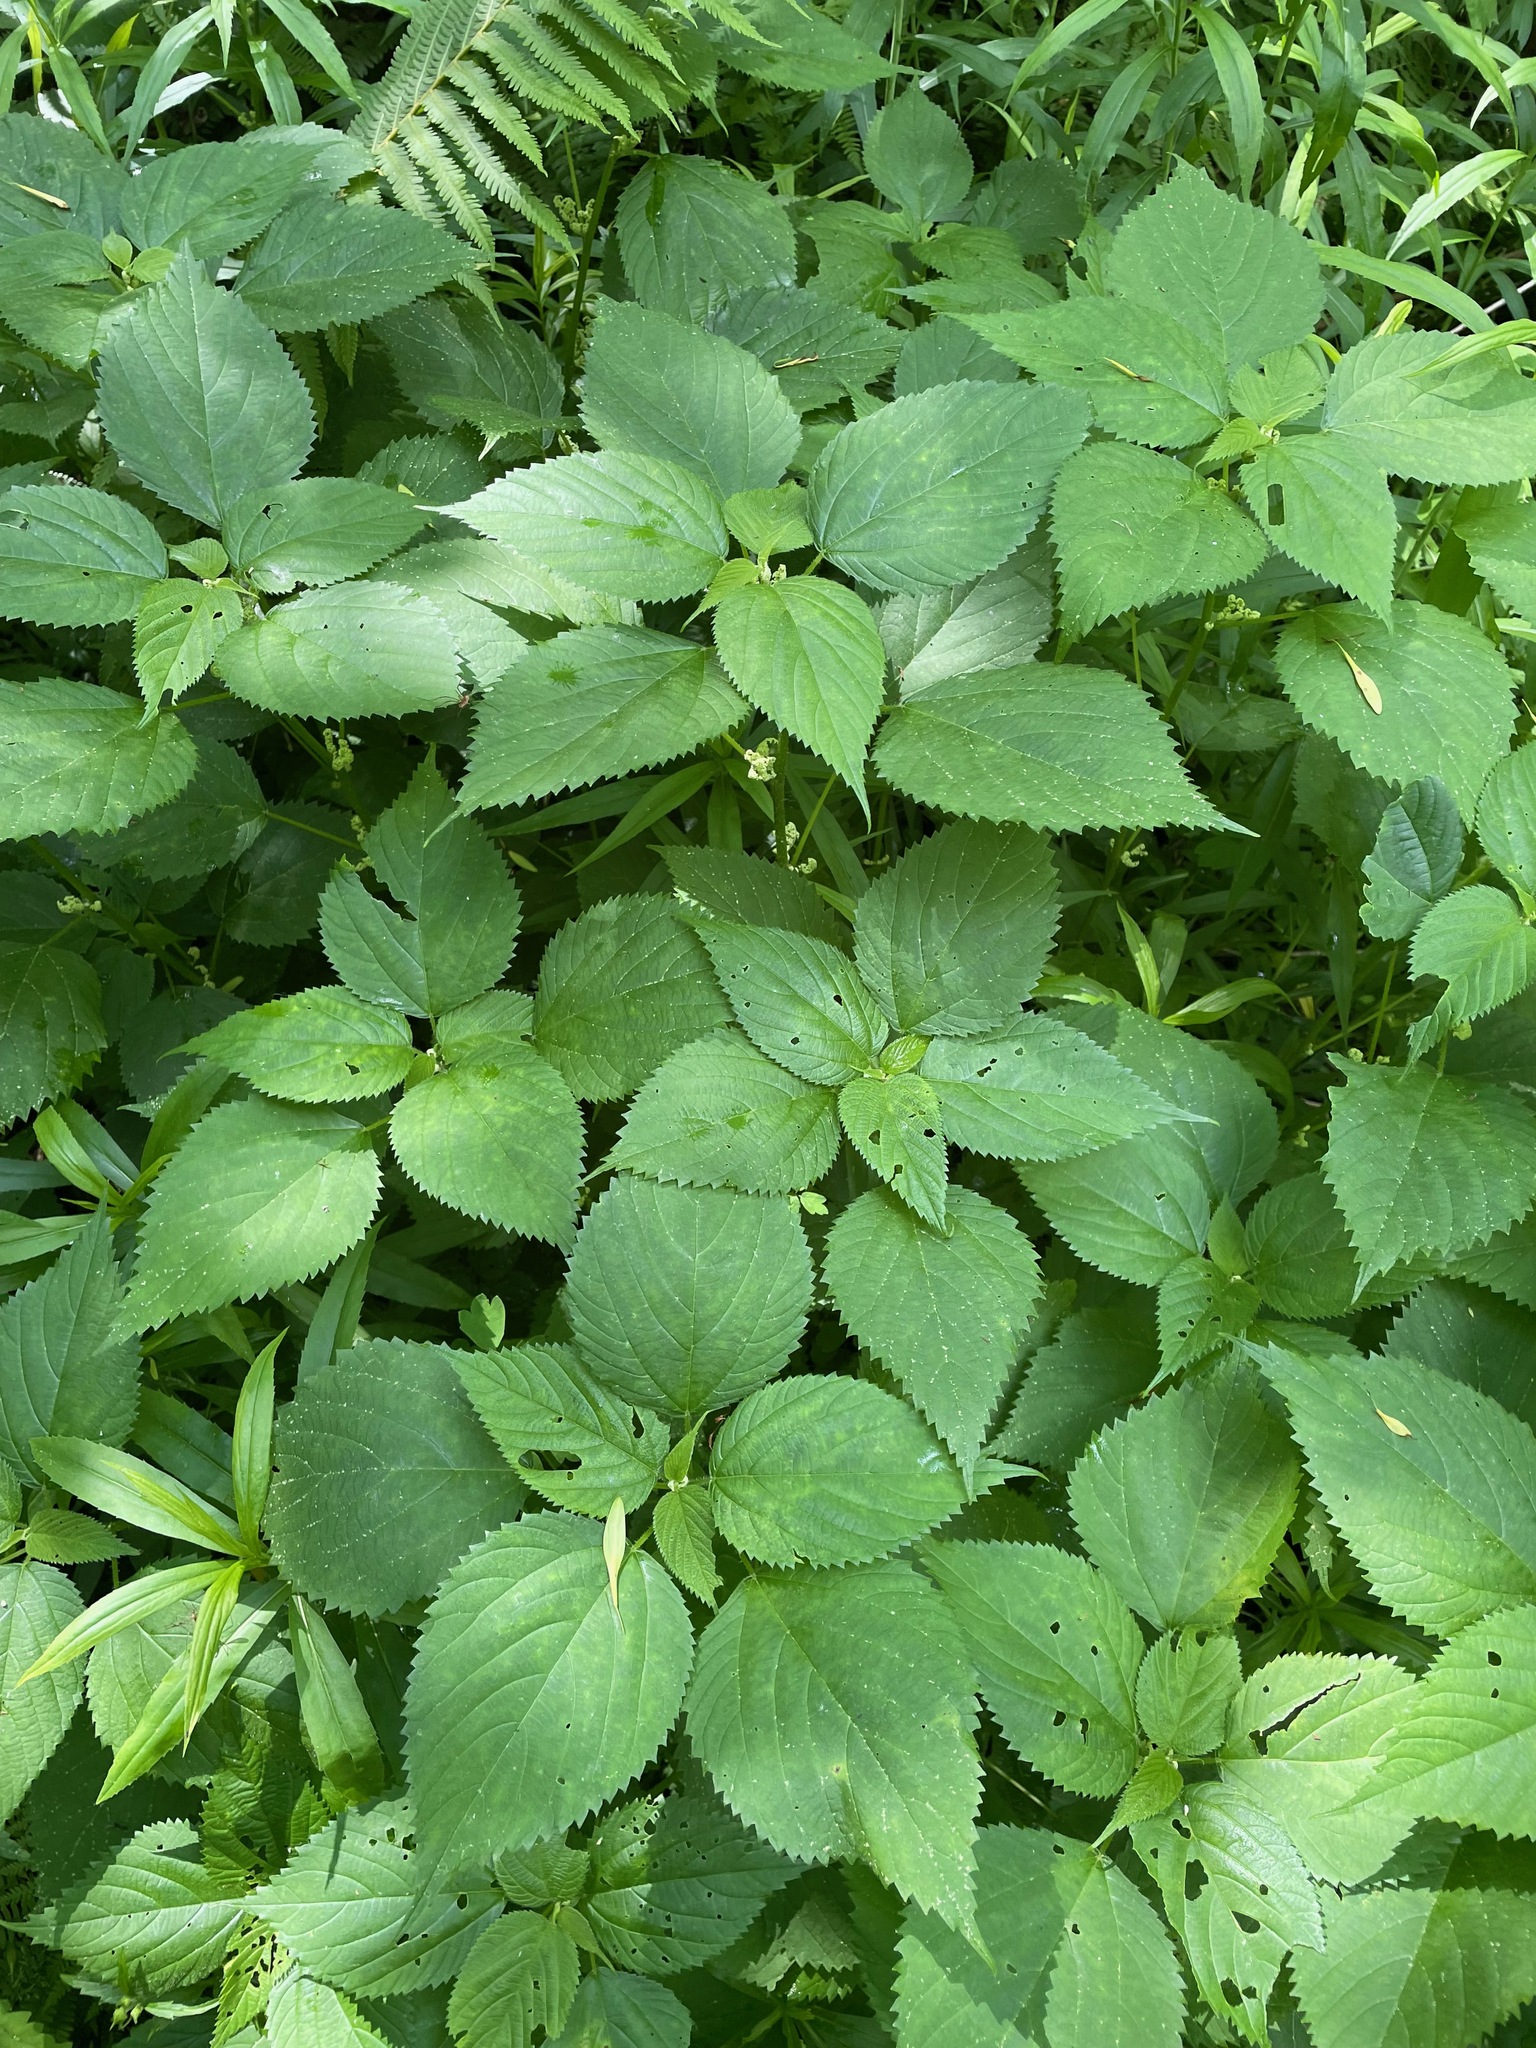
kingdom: Plantae
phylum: Tracheophyta
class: Magnoliopsida
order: Rosales
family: Urticaceae
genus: Laportea
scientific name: Laportea canadensis
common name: Canada nettle
